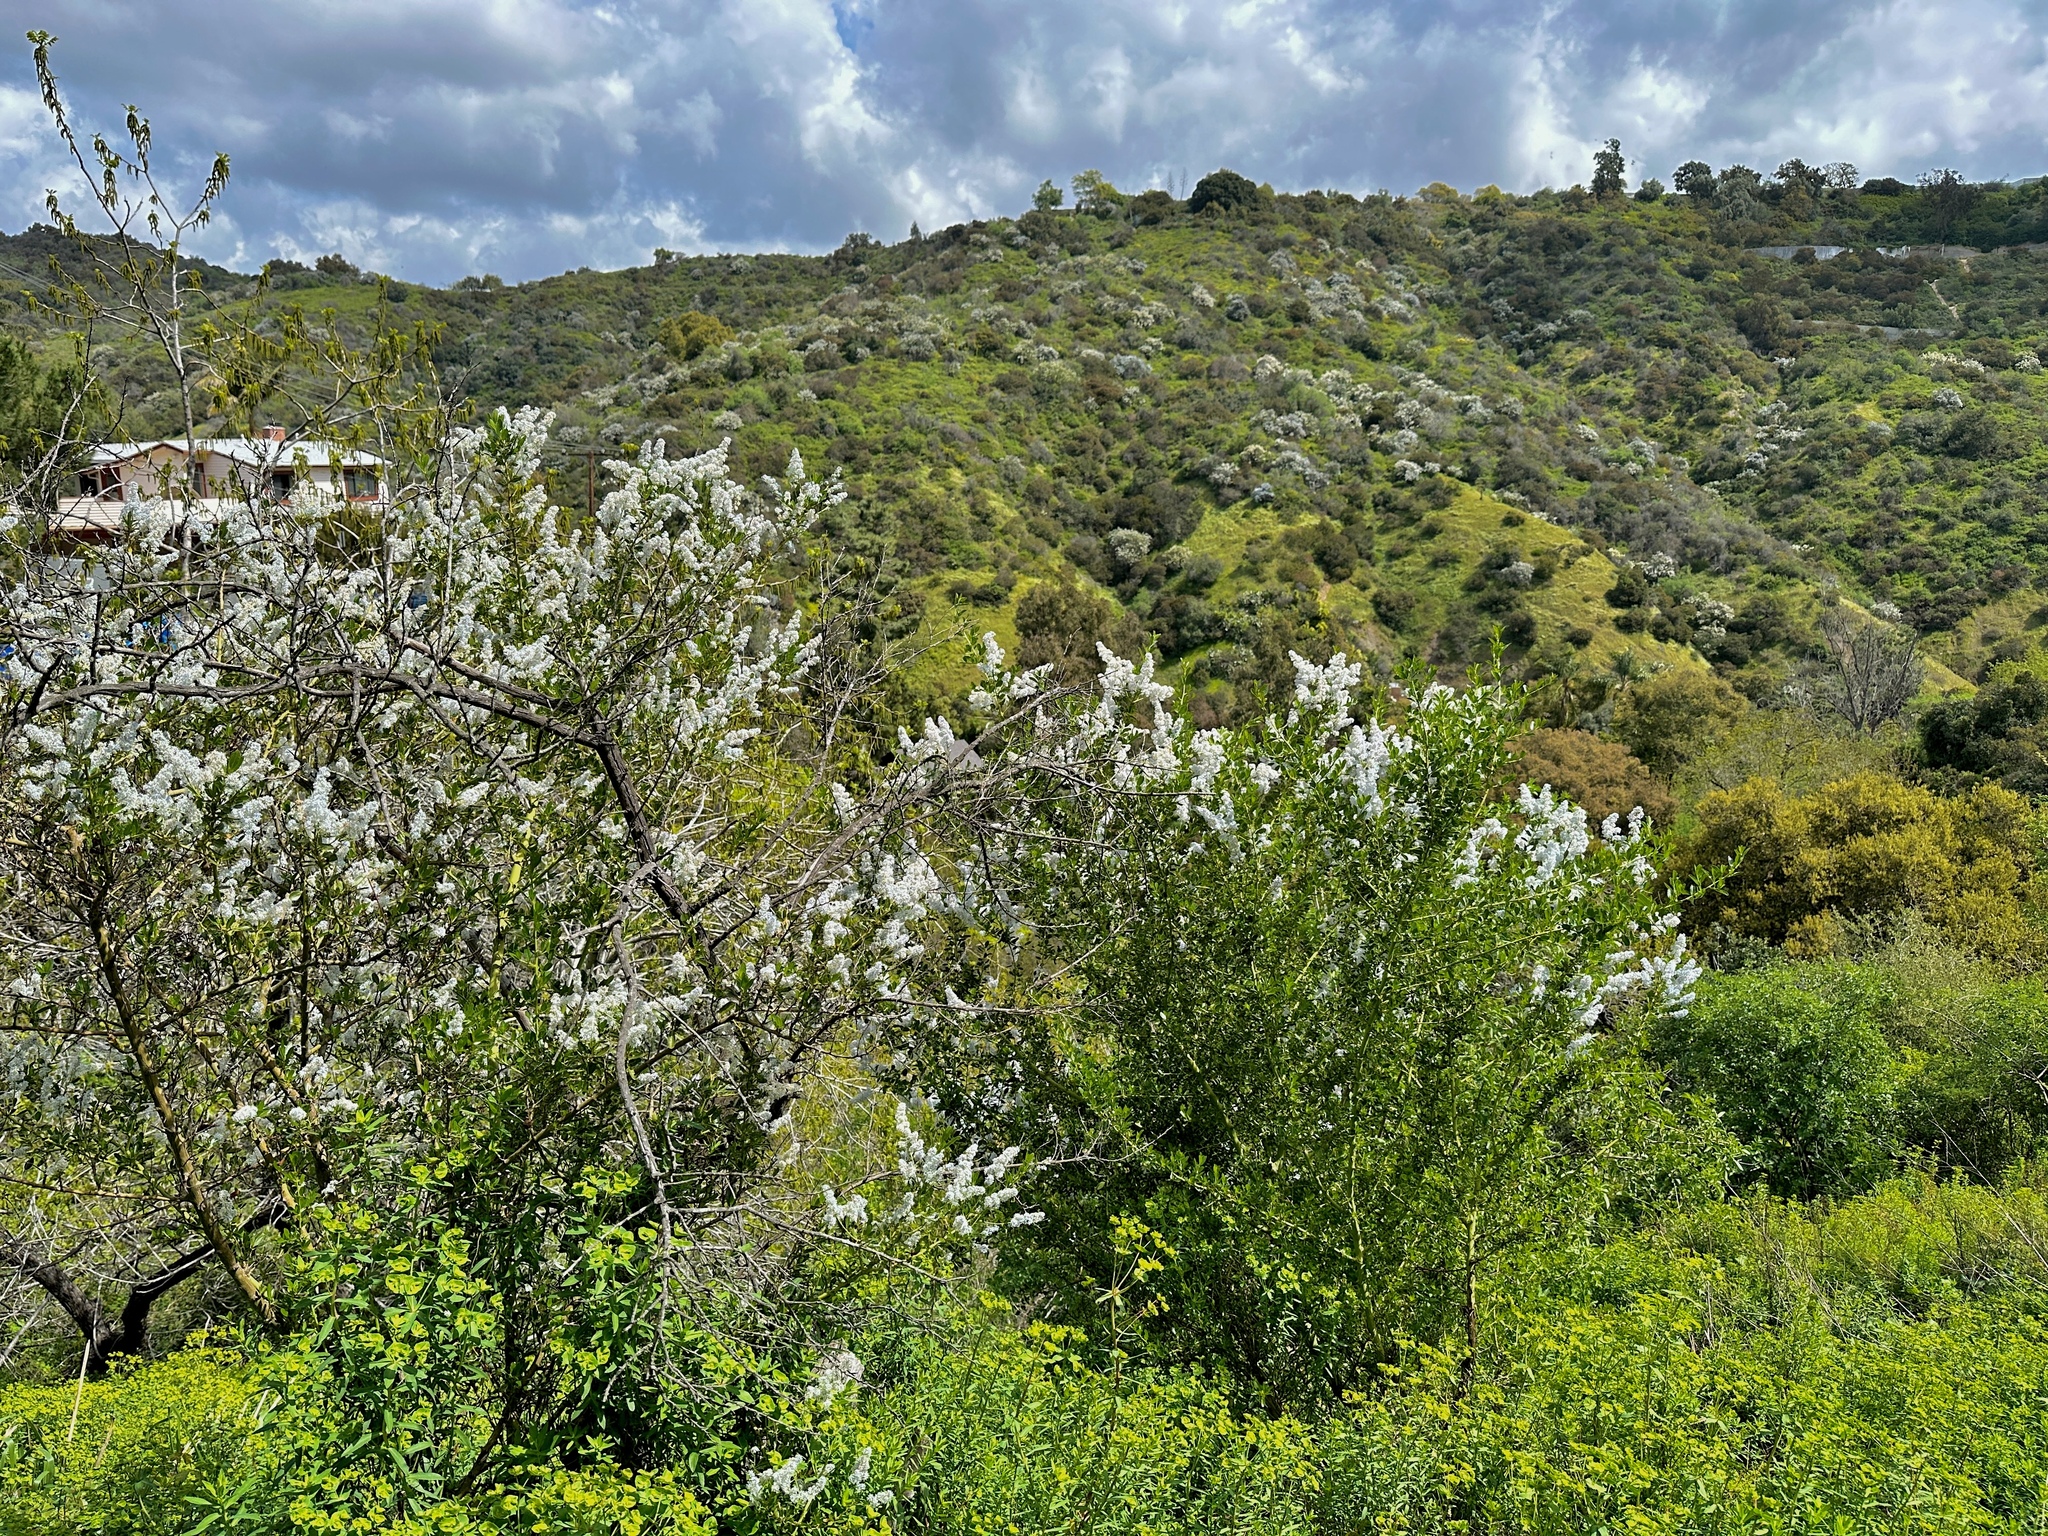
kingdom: Plantae
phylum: Tracheophyta
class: Magnoliopsida
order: Rosales
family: Rhamnaceae
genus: Ceanothus
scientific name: Ceanothus spinosus
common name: Greenbark whitethorn
